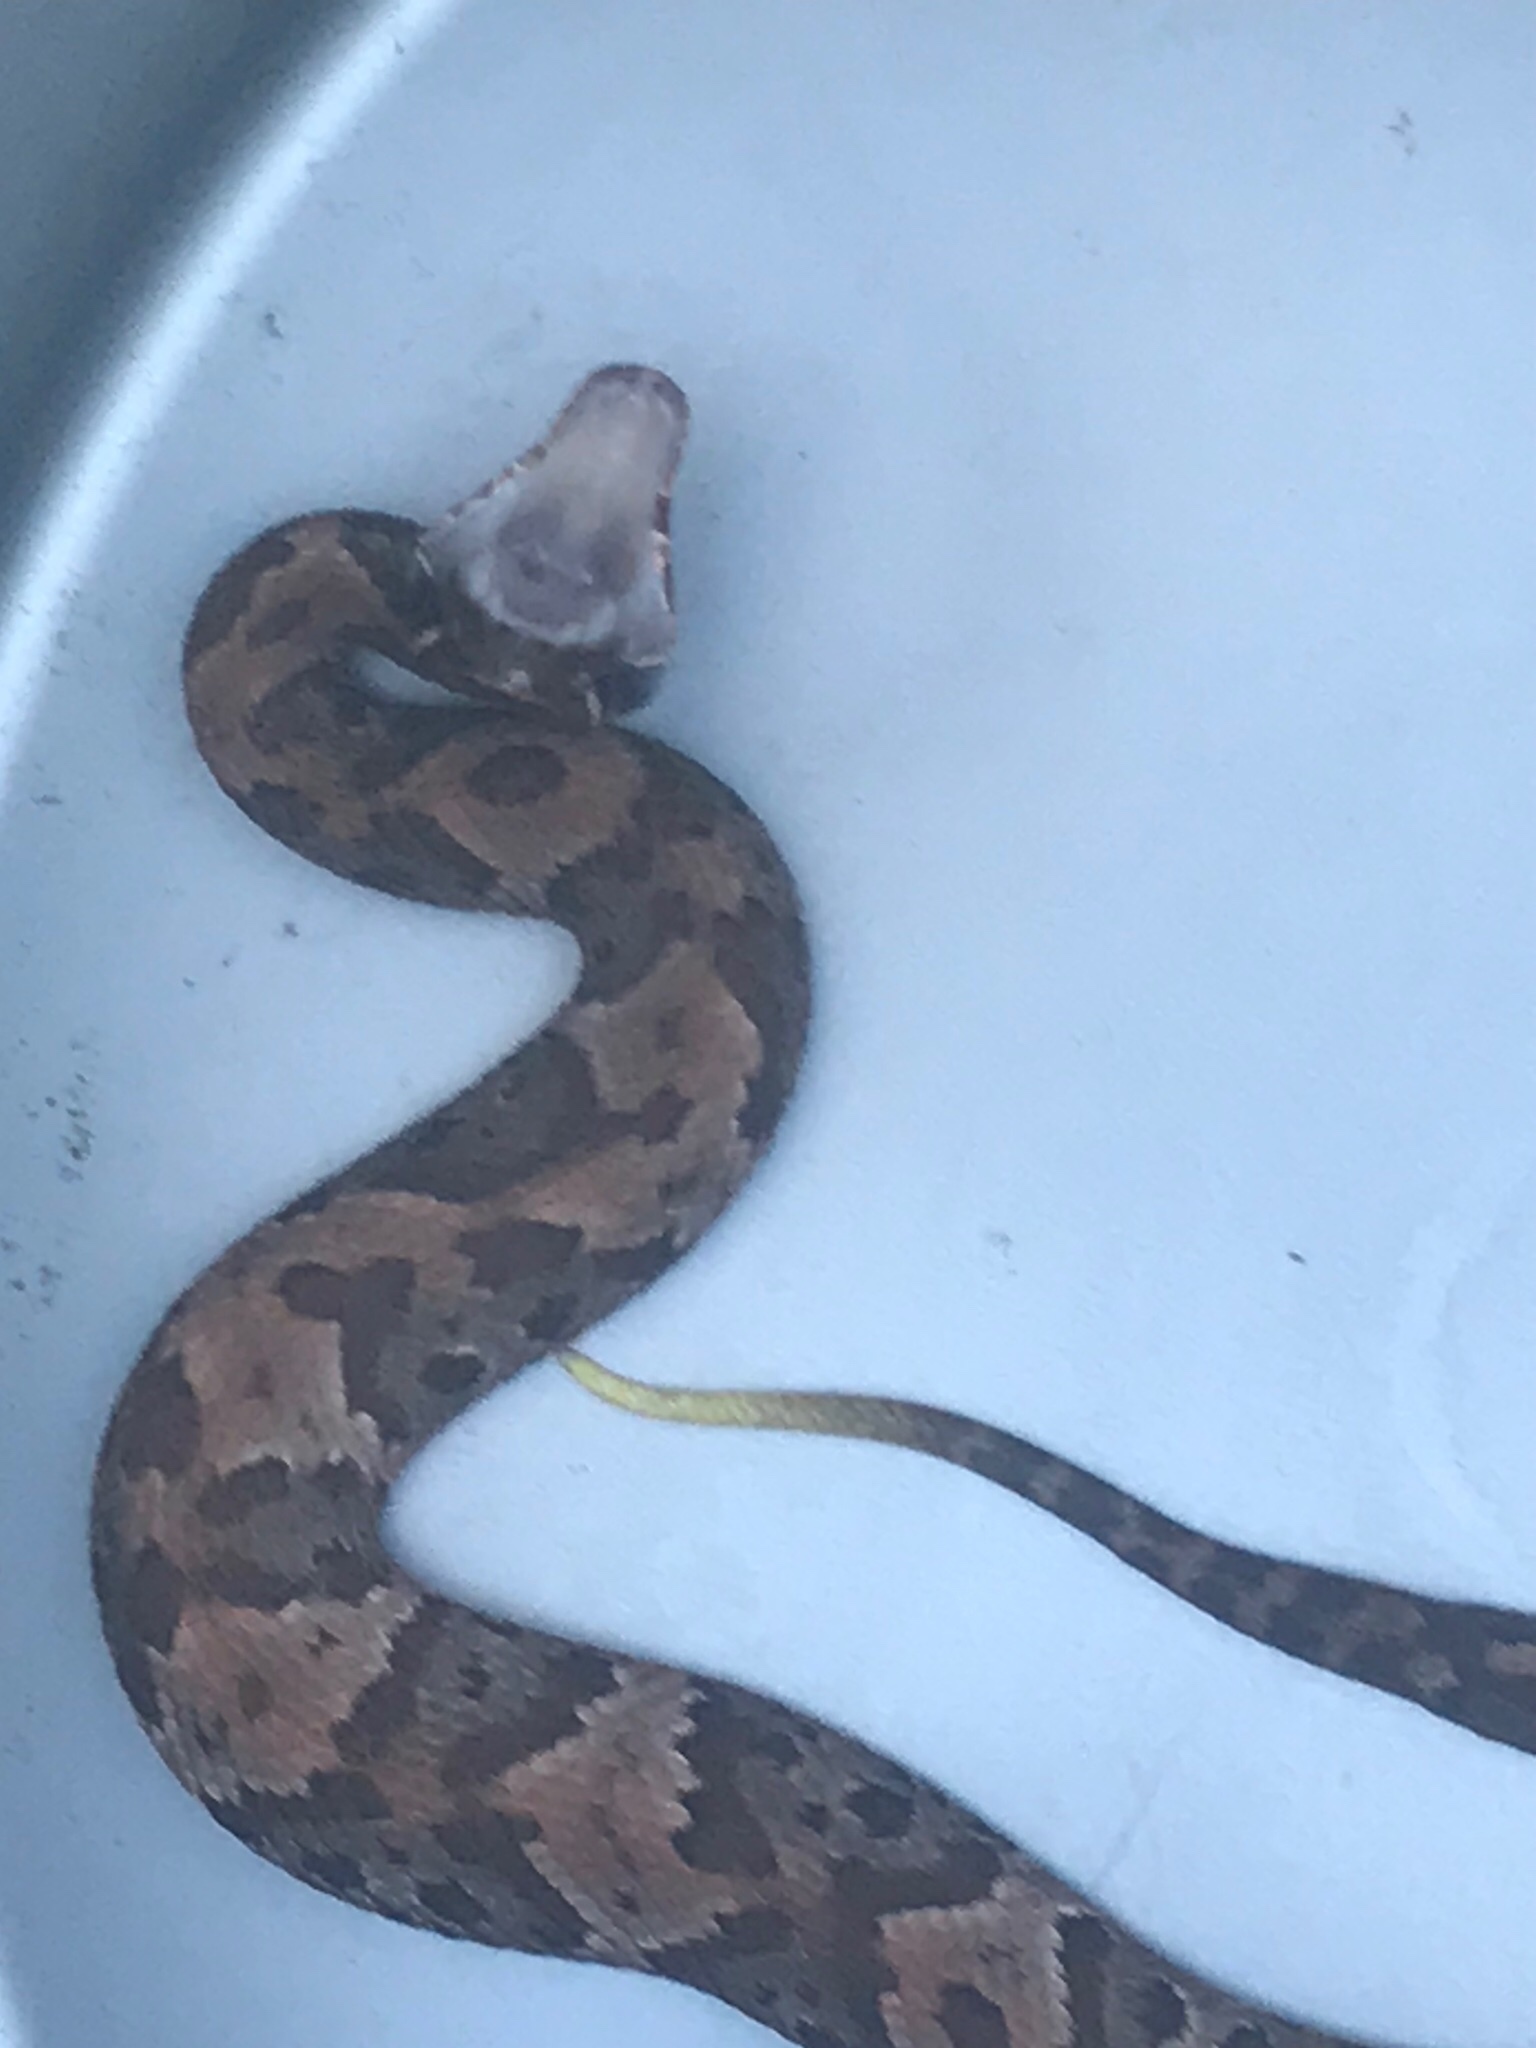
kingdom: Animalia
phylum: Chordata
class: Squamata
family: Viperidae
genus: Agkistrodon
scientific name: Agkistrodon piscivorus
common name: Cottonmouth
